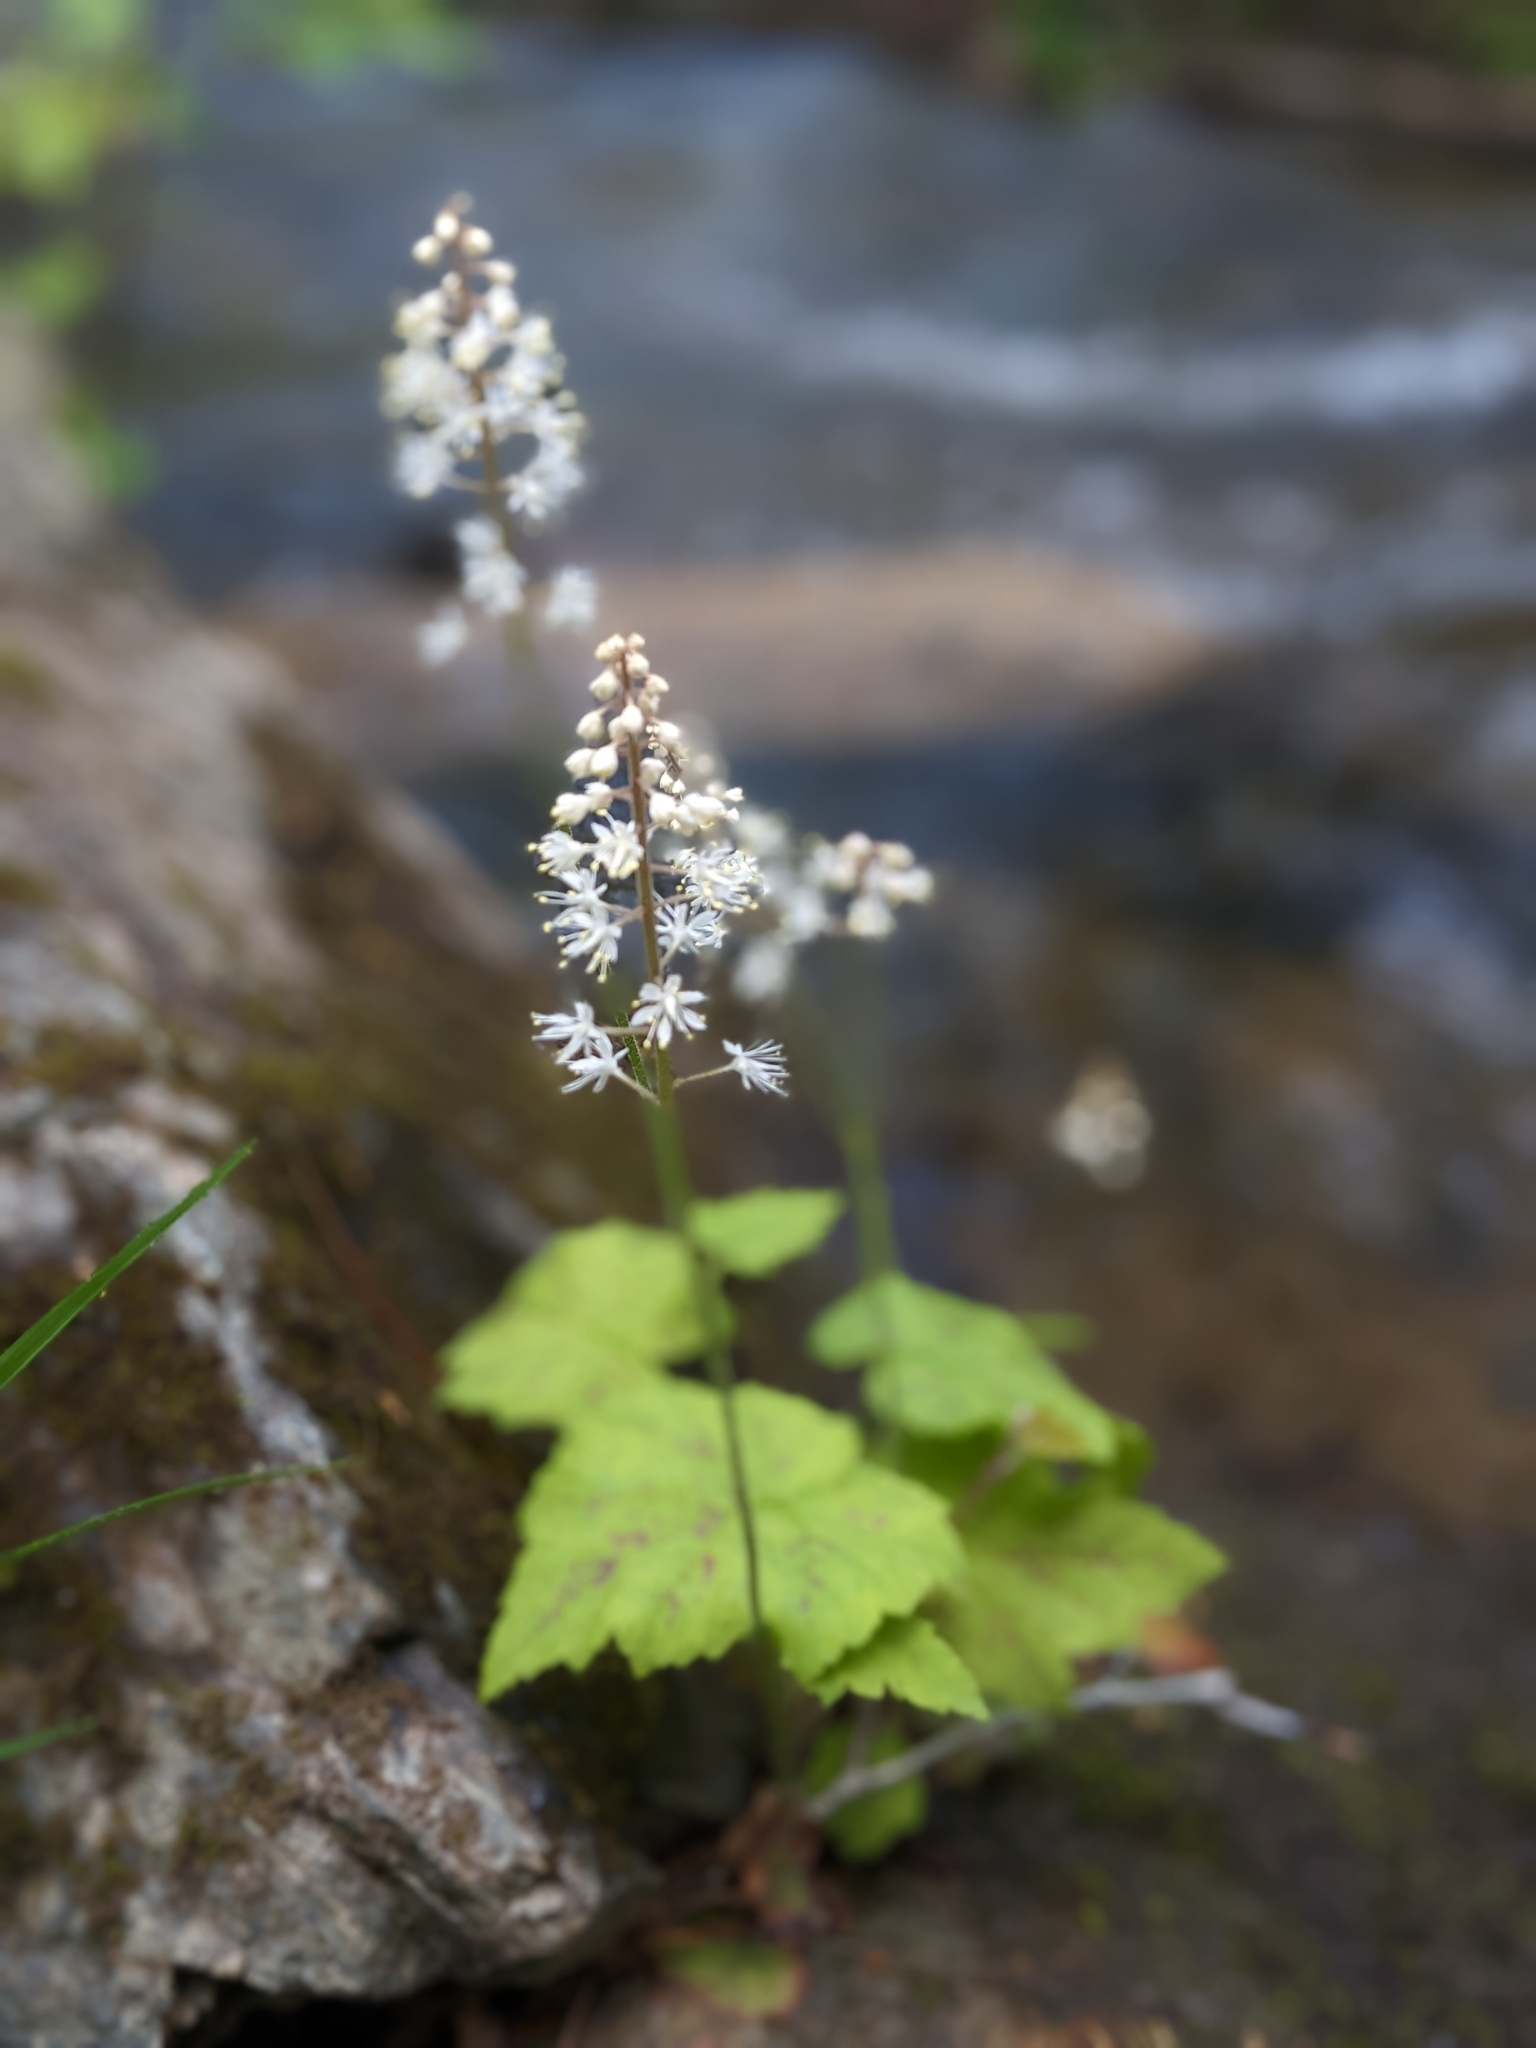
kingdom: Plantae
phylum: Tracheophyta
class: Magnoliopsida
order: Saxifragales
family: Saxifragaceae
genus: Tiarella
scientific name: Tiarella stolonifera
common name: Stoloniferous foamflower
